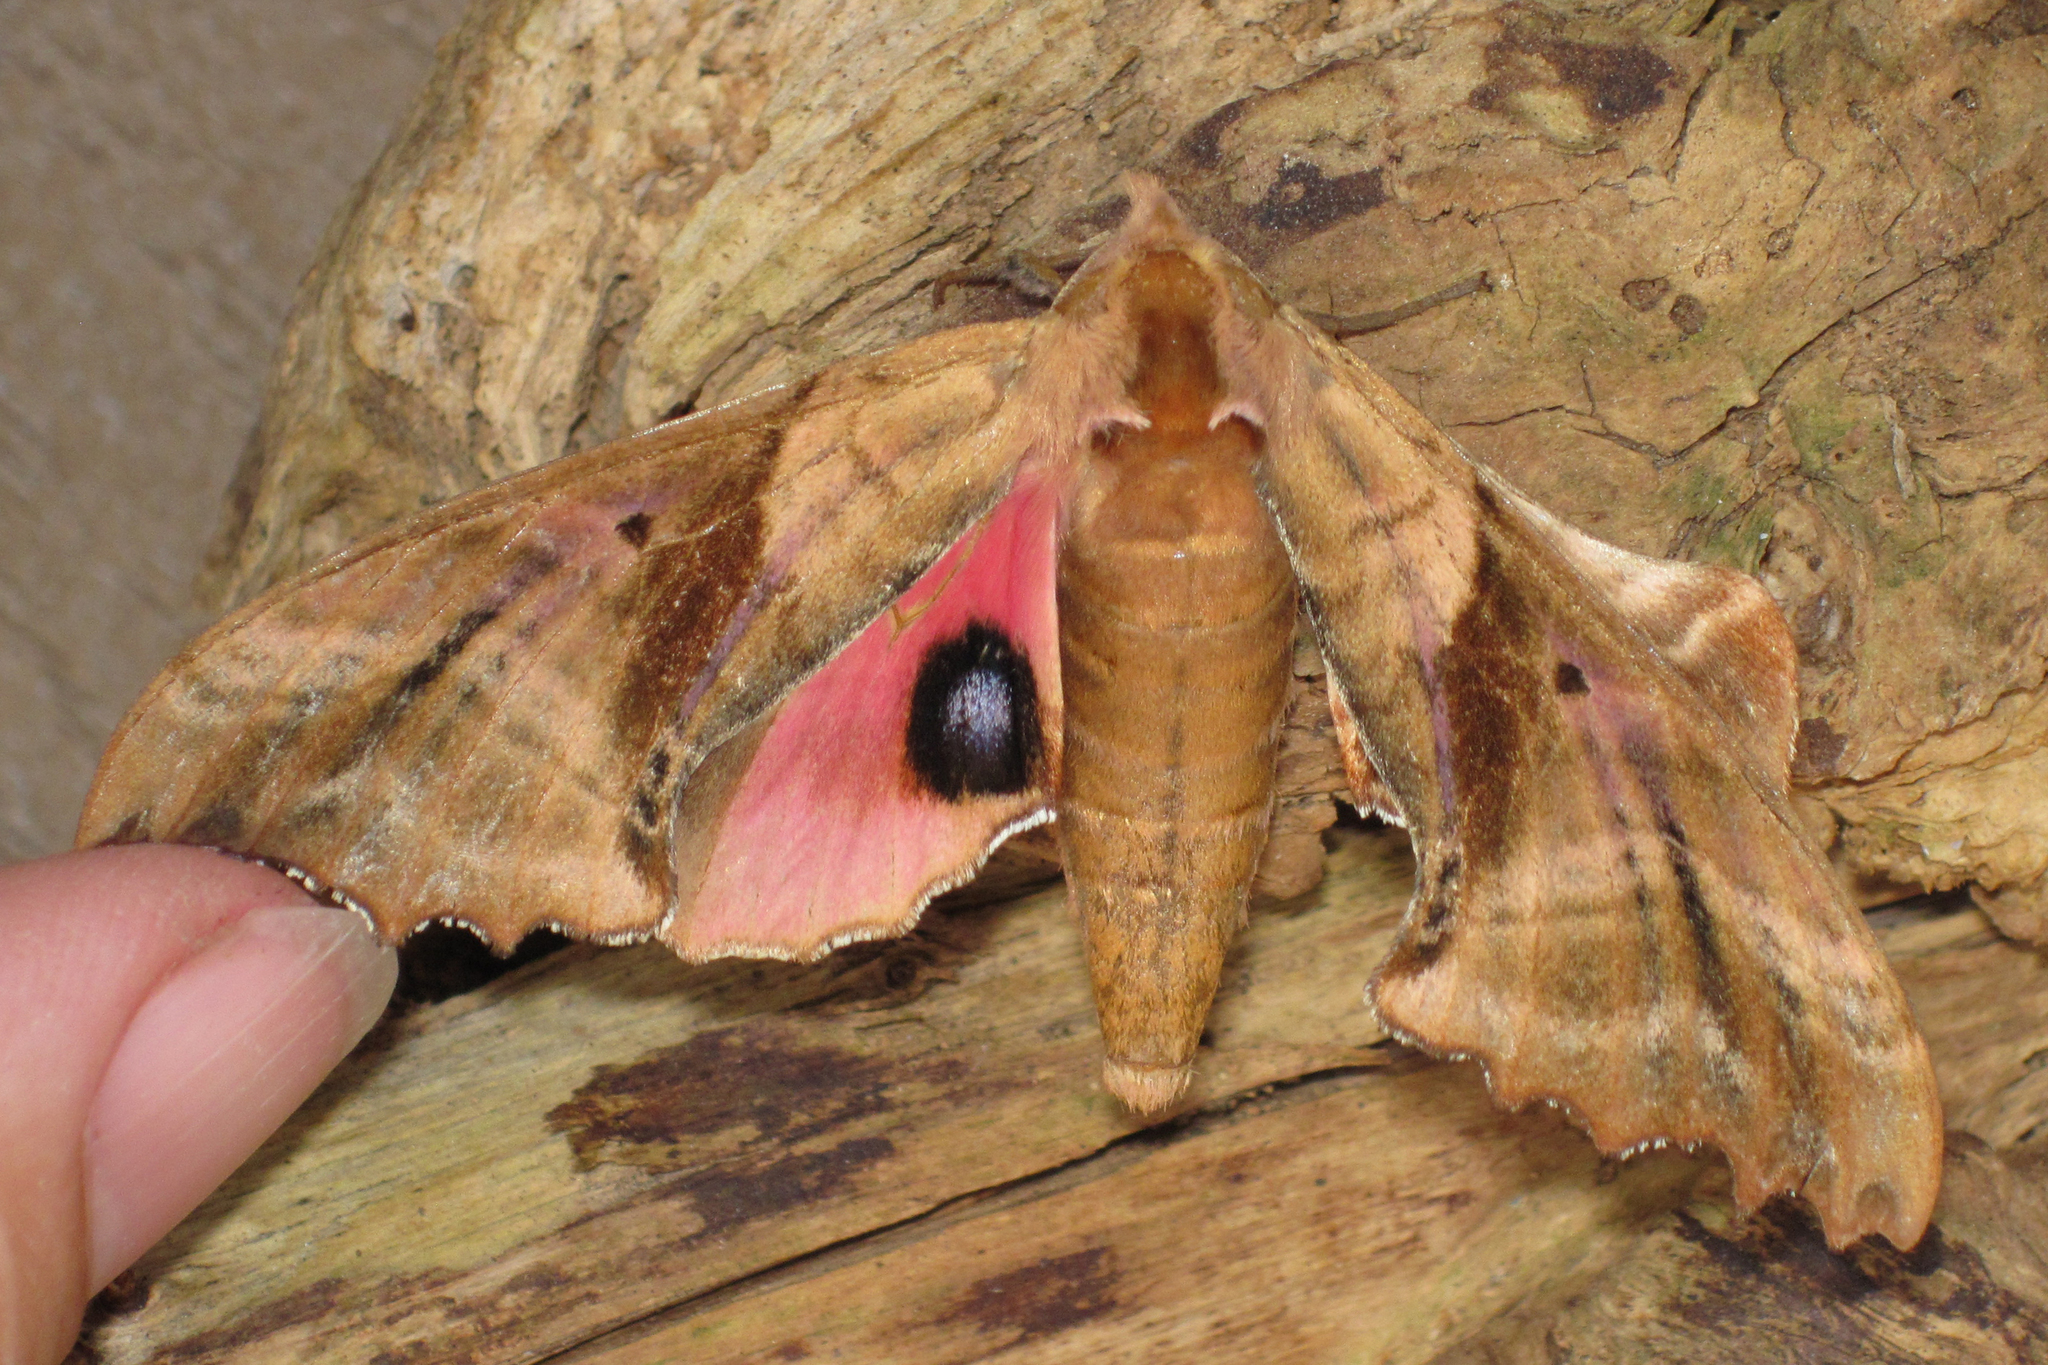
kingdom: Animalia
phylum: Arthropoda
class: Insecta
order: Lepidoptera
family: Sphingidae
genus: Paonias
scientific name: Paonias excaecata
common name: Blind-eyed sphinx
